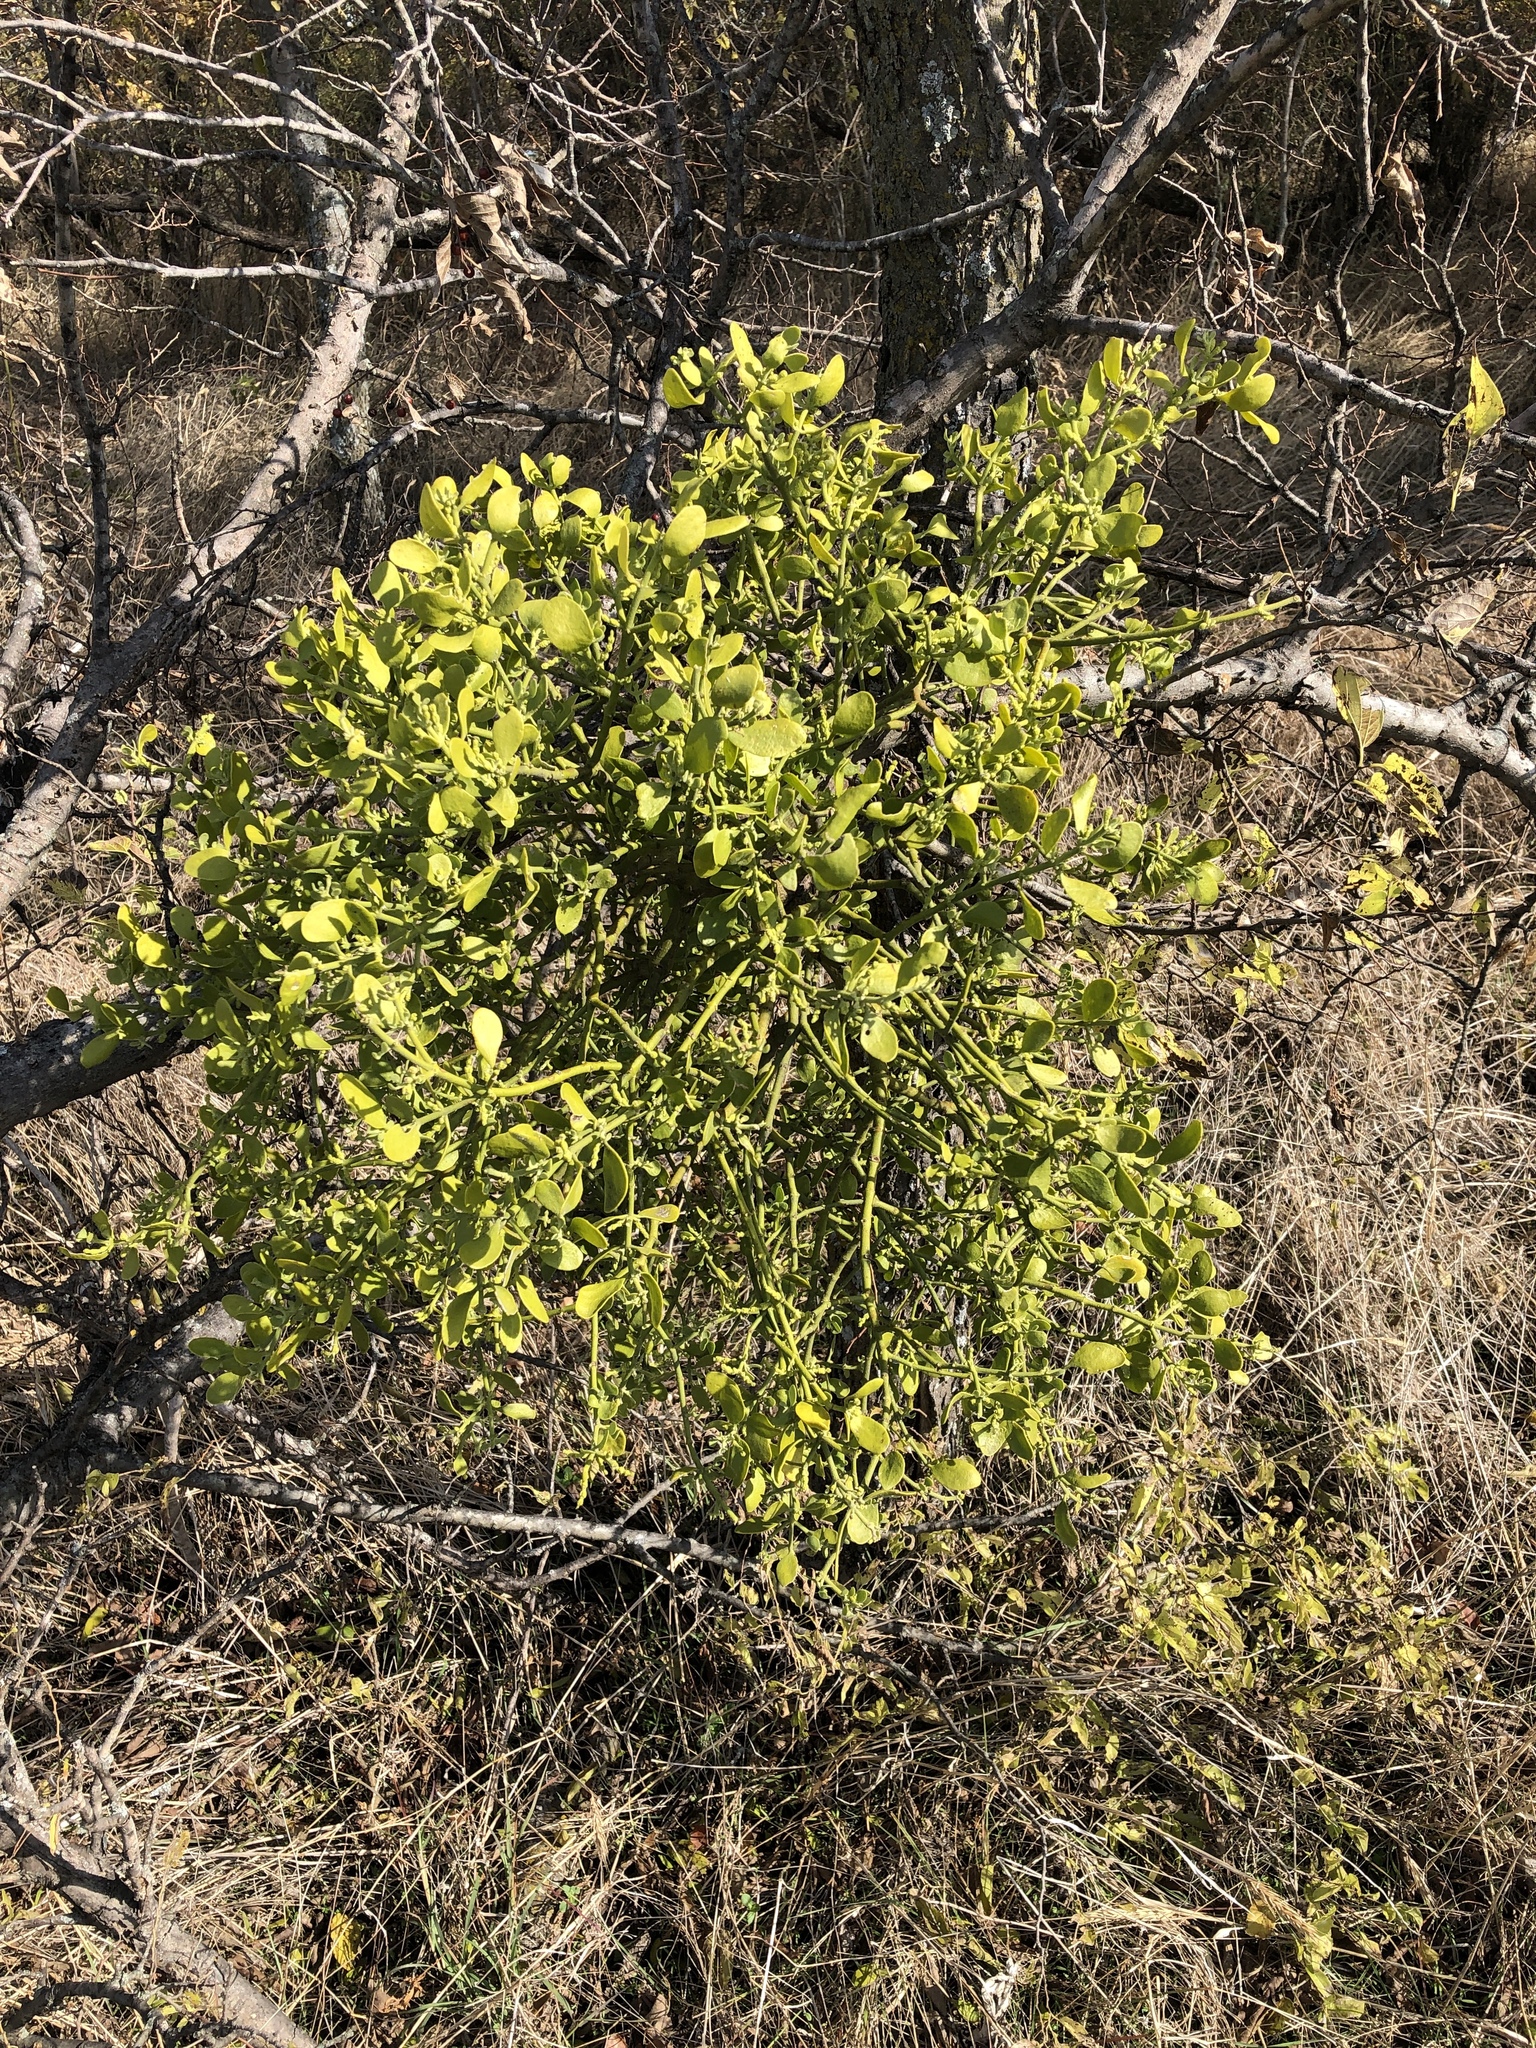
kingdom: Plantae
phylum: Tracheophyta
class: Magnoliopsida
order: Santalales
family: Viscaceae
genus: Phoradendron
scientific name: Phoradendron leucarpum
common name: Pacific mistletoe
